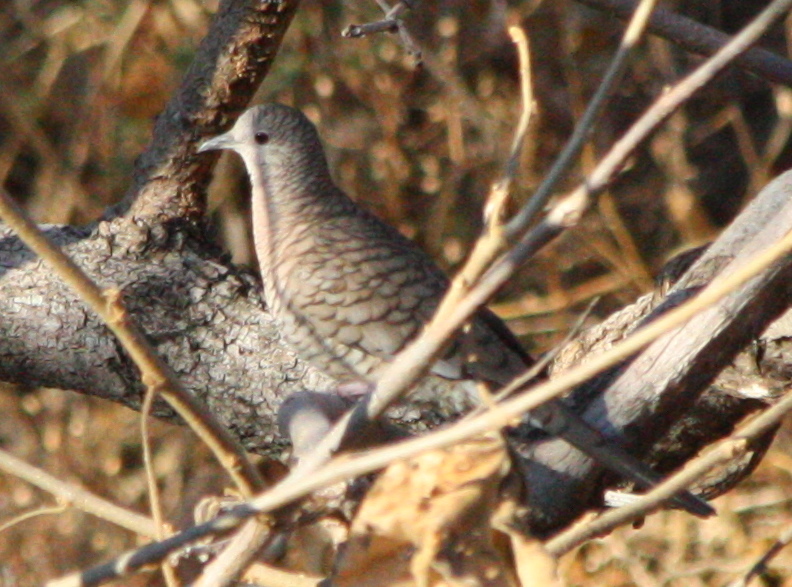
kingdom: Animalia
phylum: Chordata
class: Aves
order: Columbiformes
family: Columbidae
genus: Columbina
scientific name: Columbina inca
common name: Inca dove
